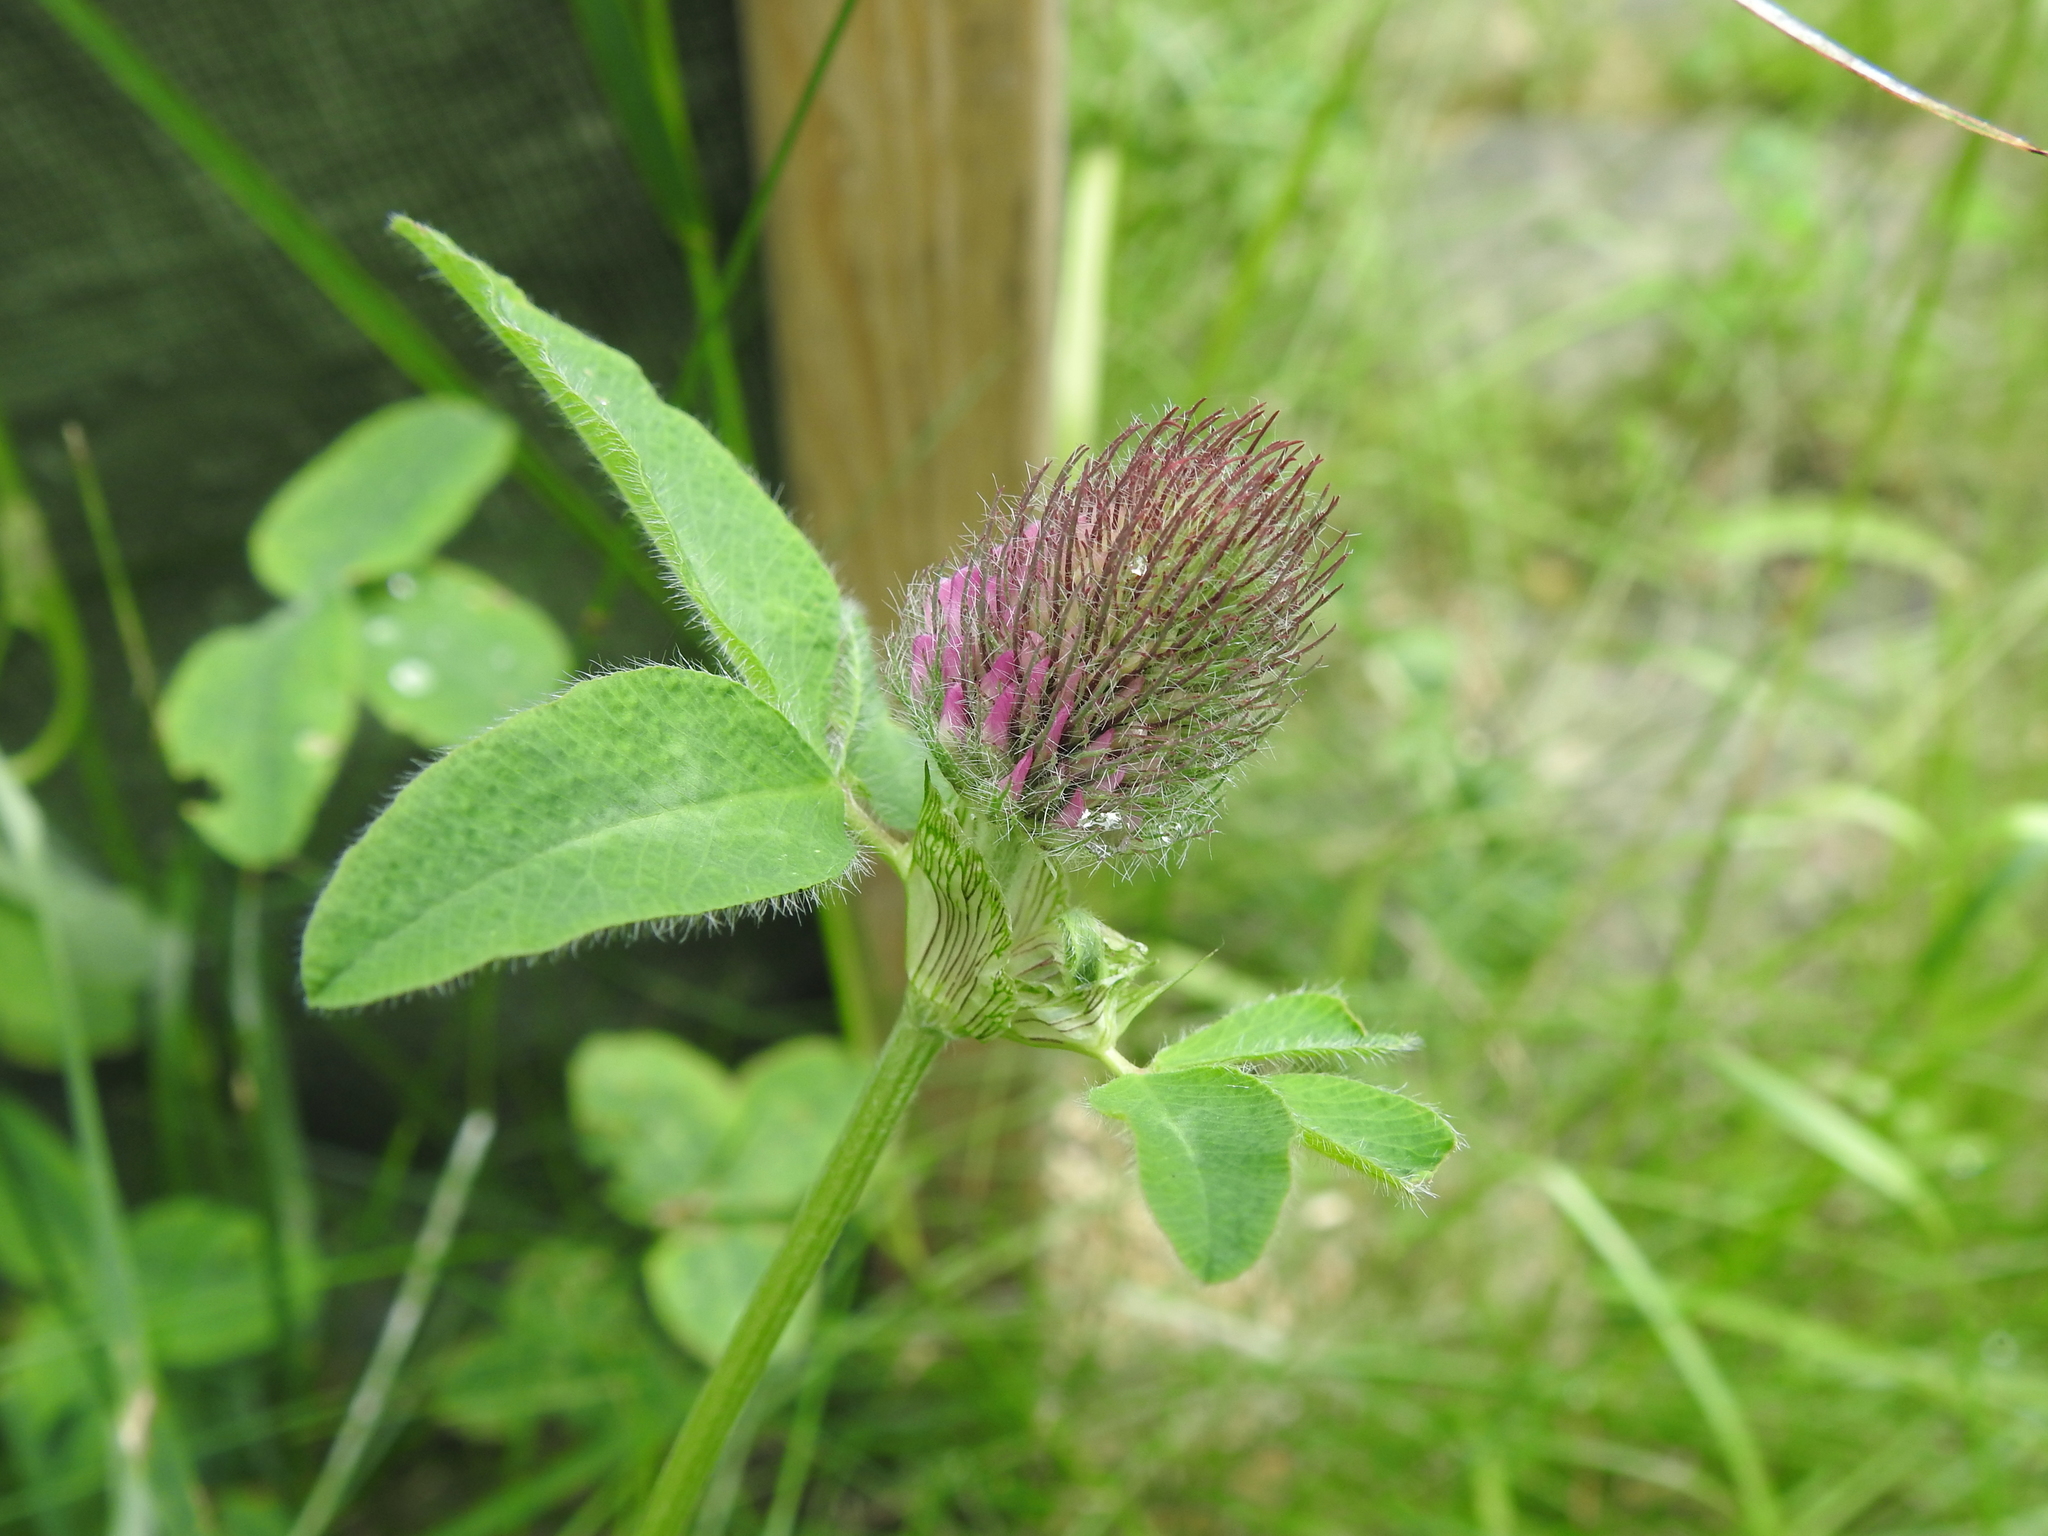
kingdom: Plantae
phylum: Tracheophyta
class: Magnoliopsida
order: Fabales
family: Fabaceae
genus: Trifolium
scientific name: Trifolium pratense
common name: Red clover
